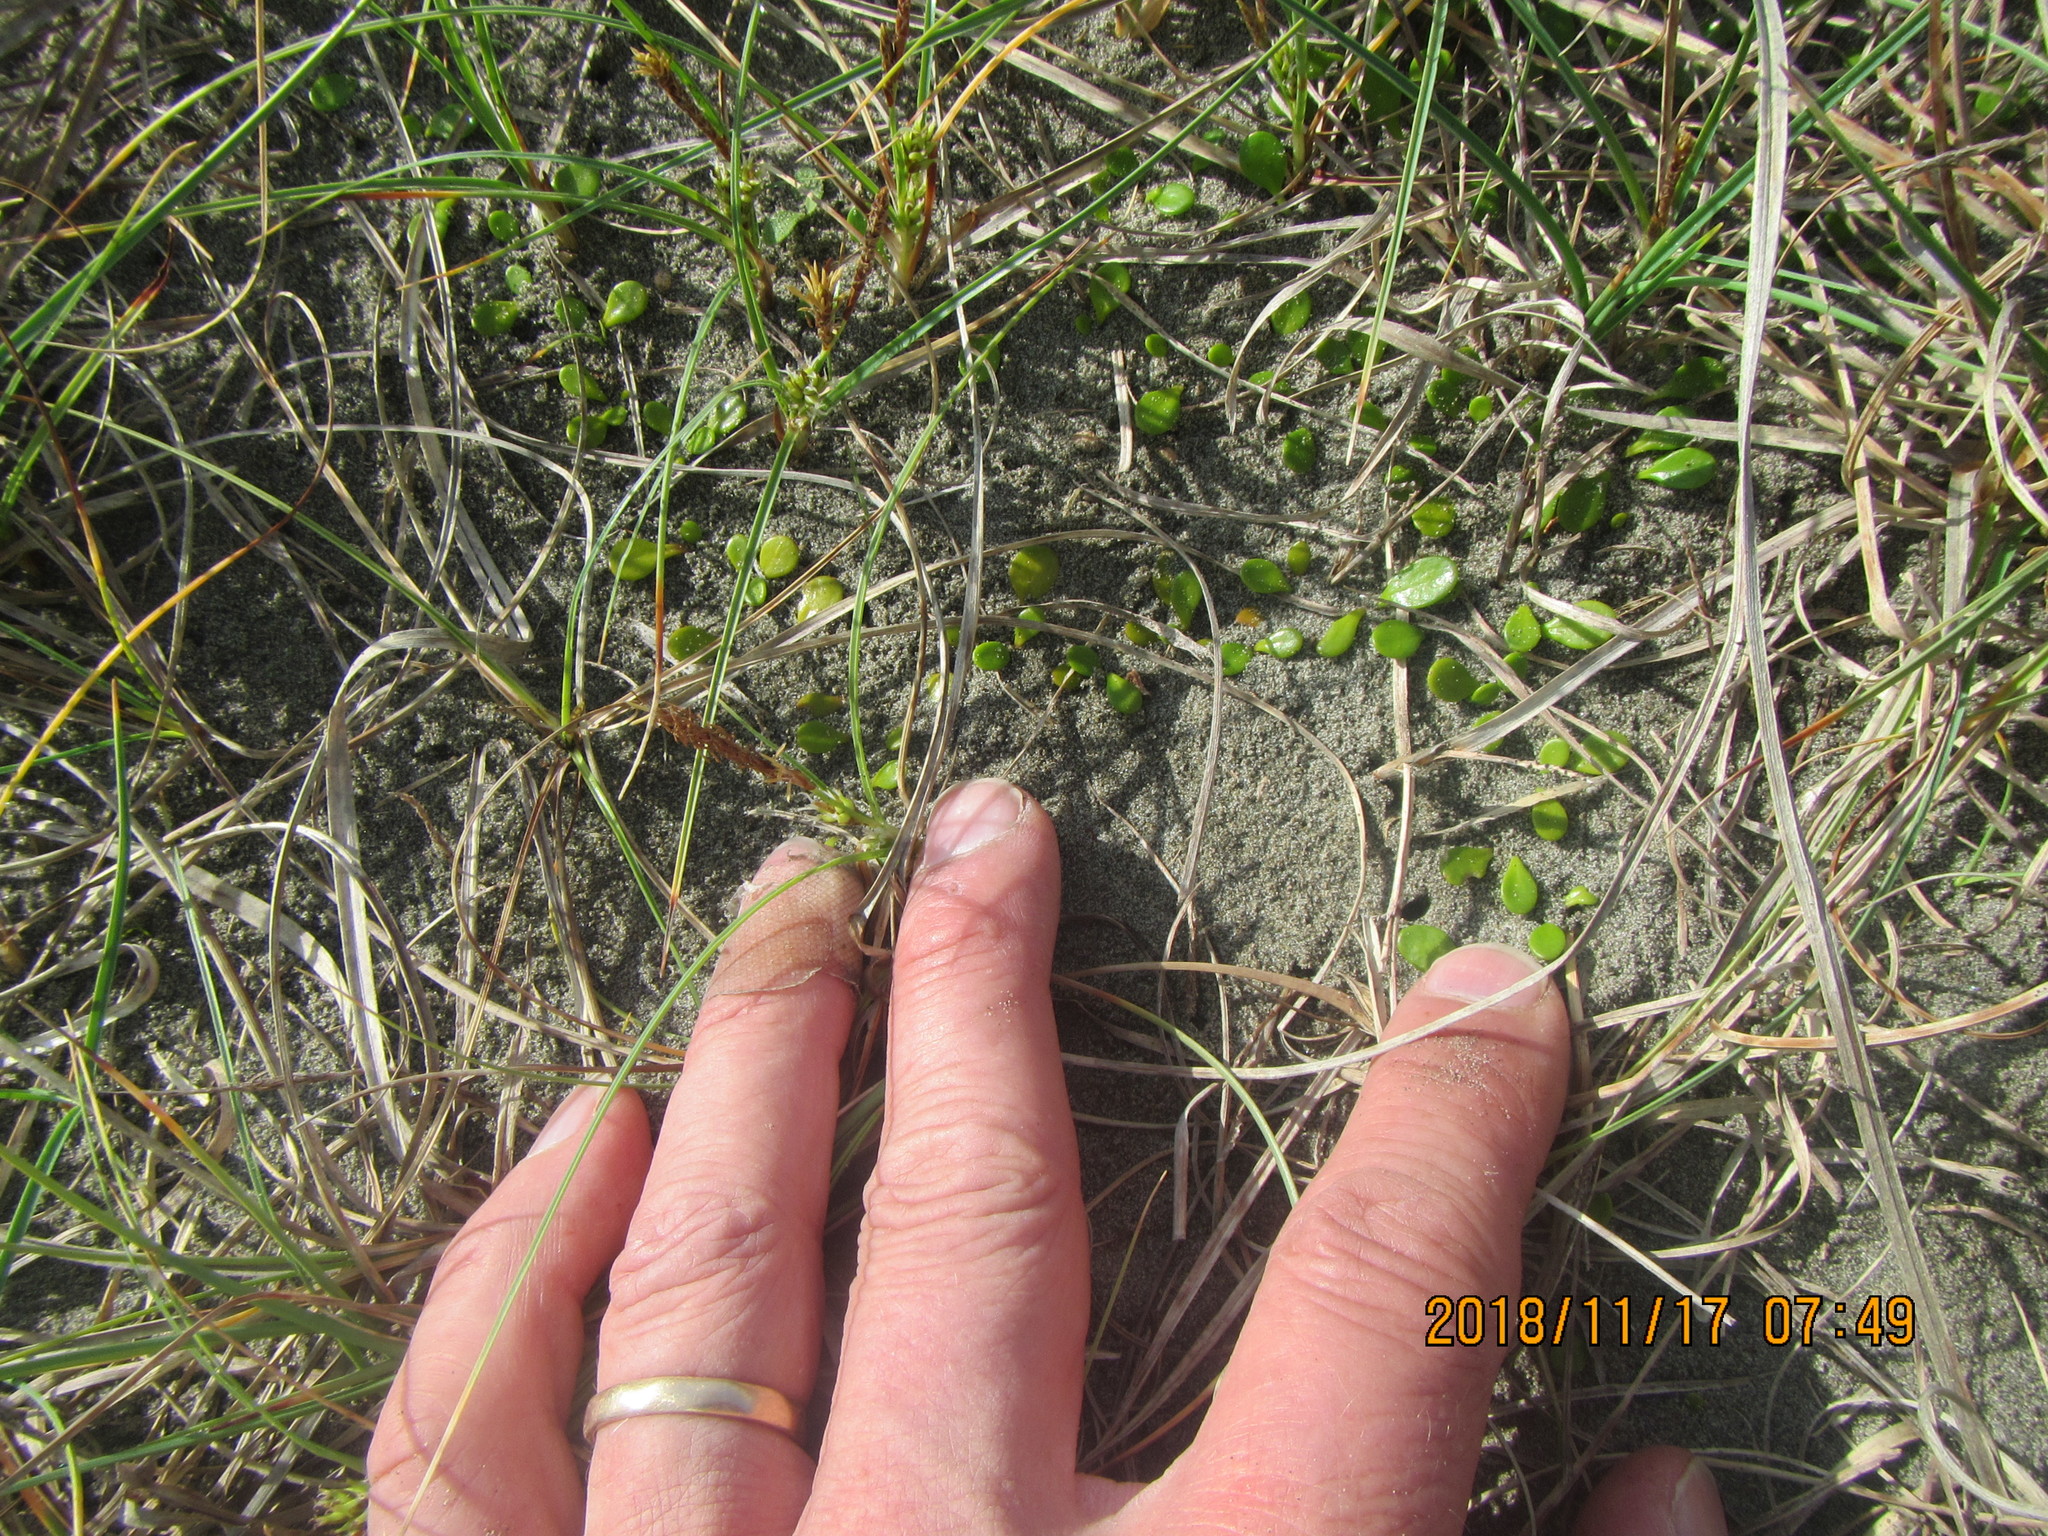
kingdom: Plantae
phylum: Tracheophyta
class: Magnoliopsida
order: Asterales
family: Goodeniaceae
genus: Goodenia
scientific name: Goodenia heenanii
